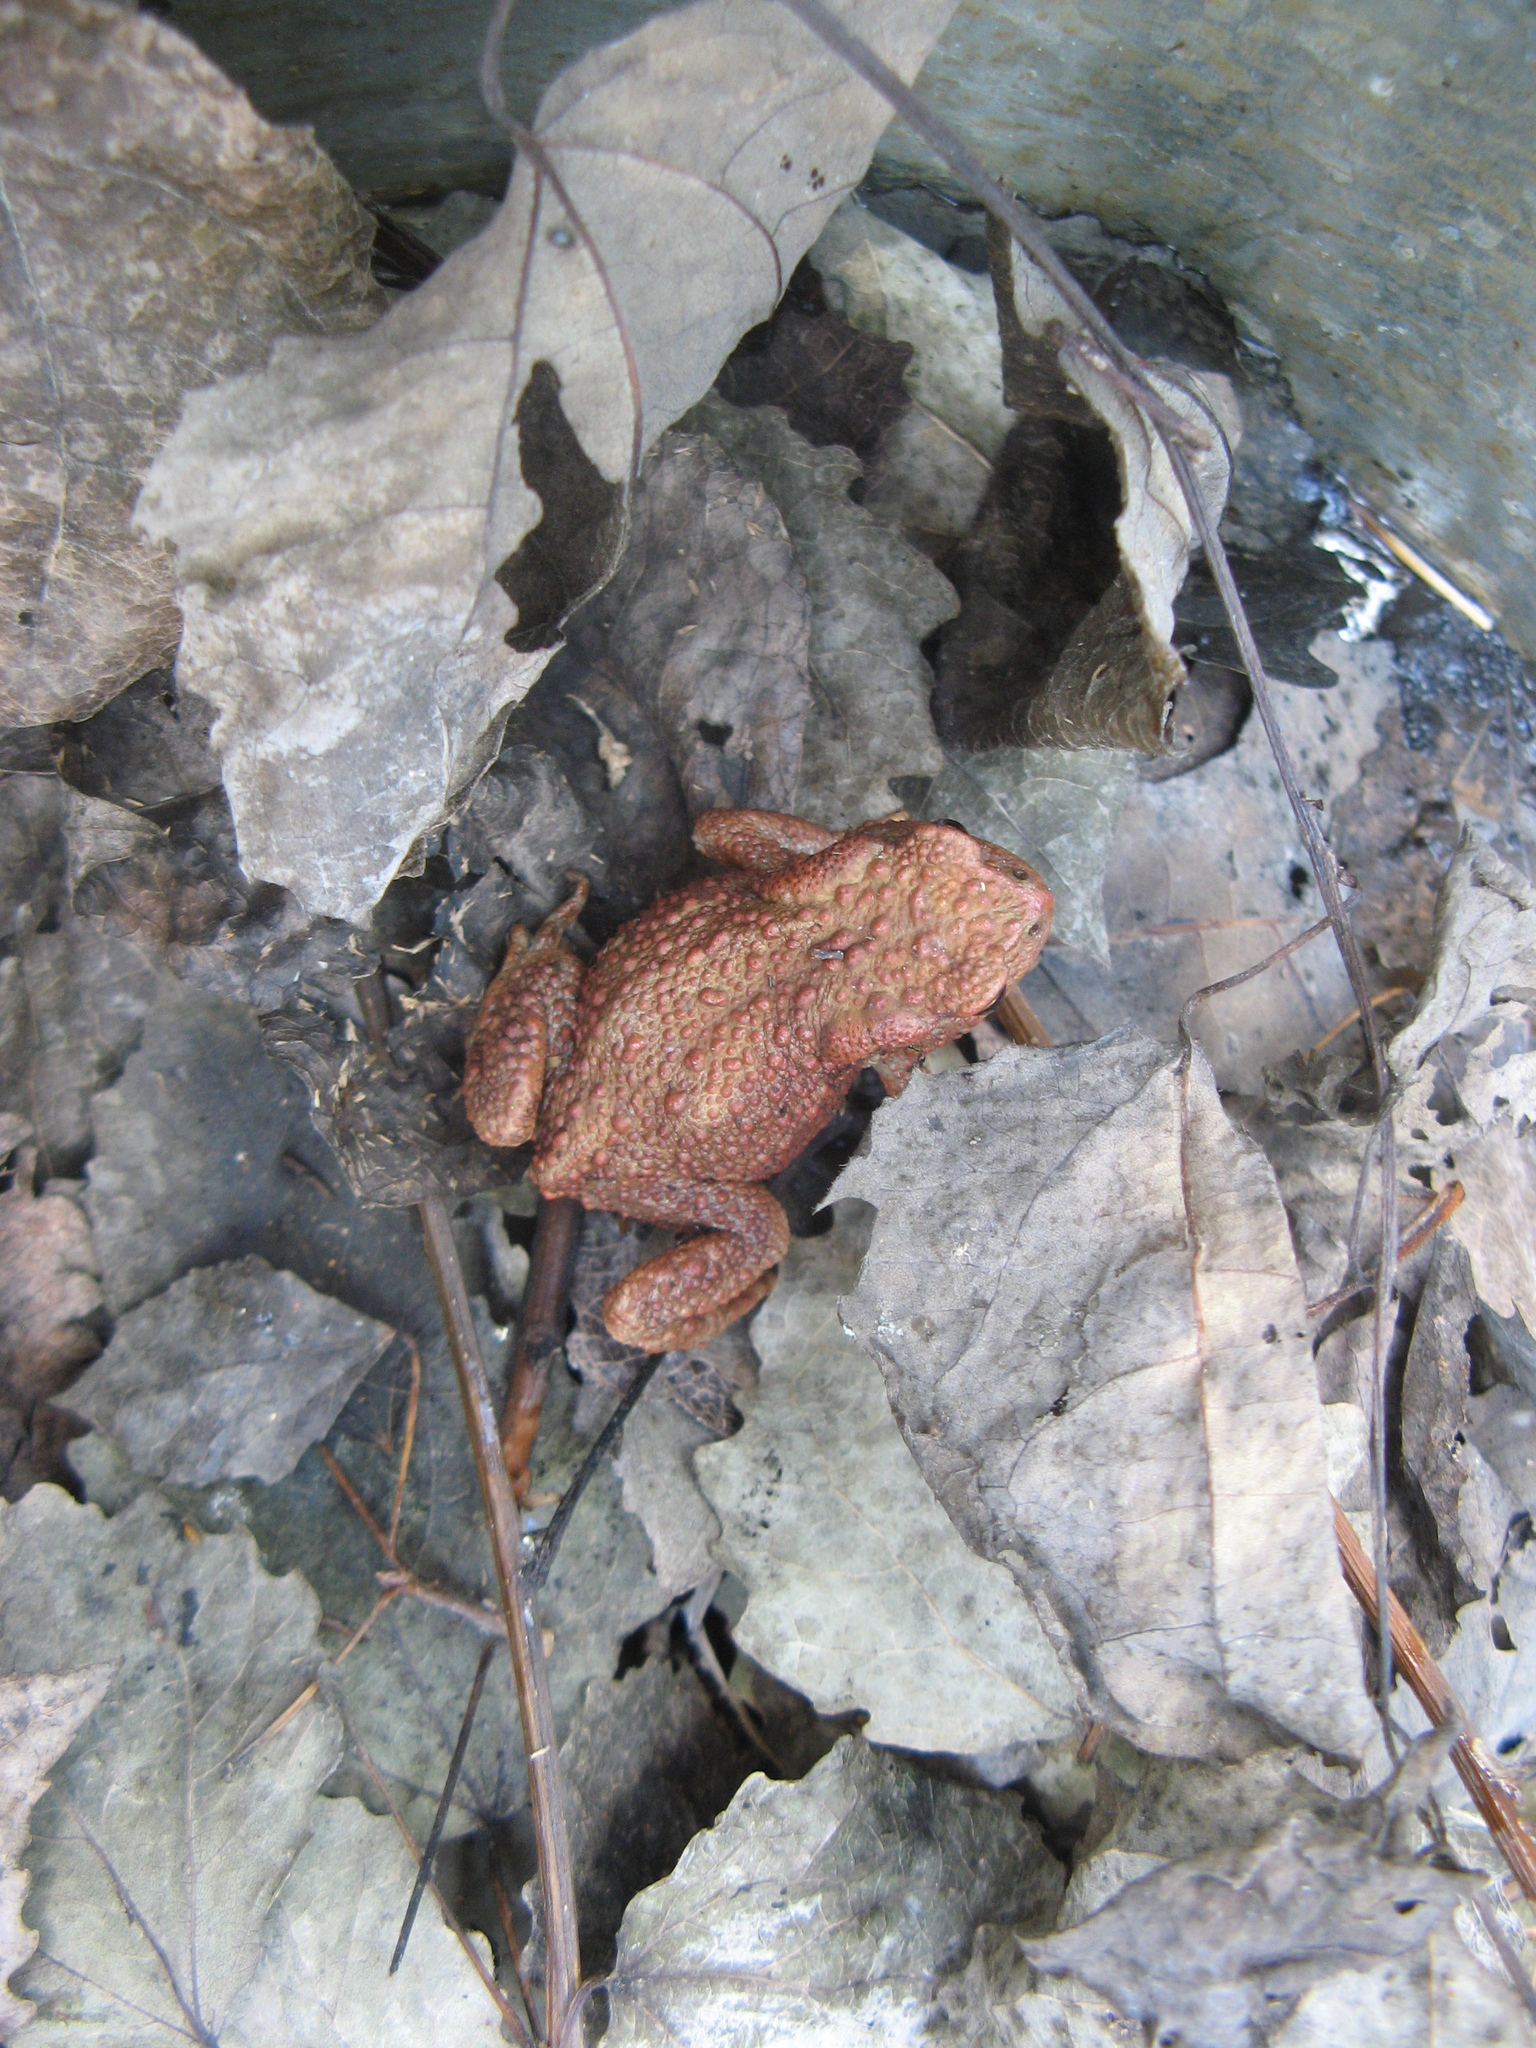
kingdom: Animalia
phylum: Chordata
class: Amphibia
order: Anura
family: Bufonidae
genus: Bufo
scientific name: Bufo bufo
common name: Common toad
